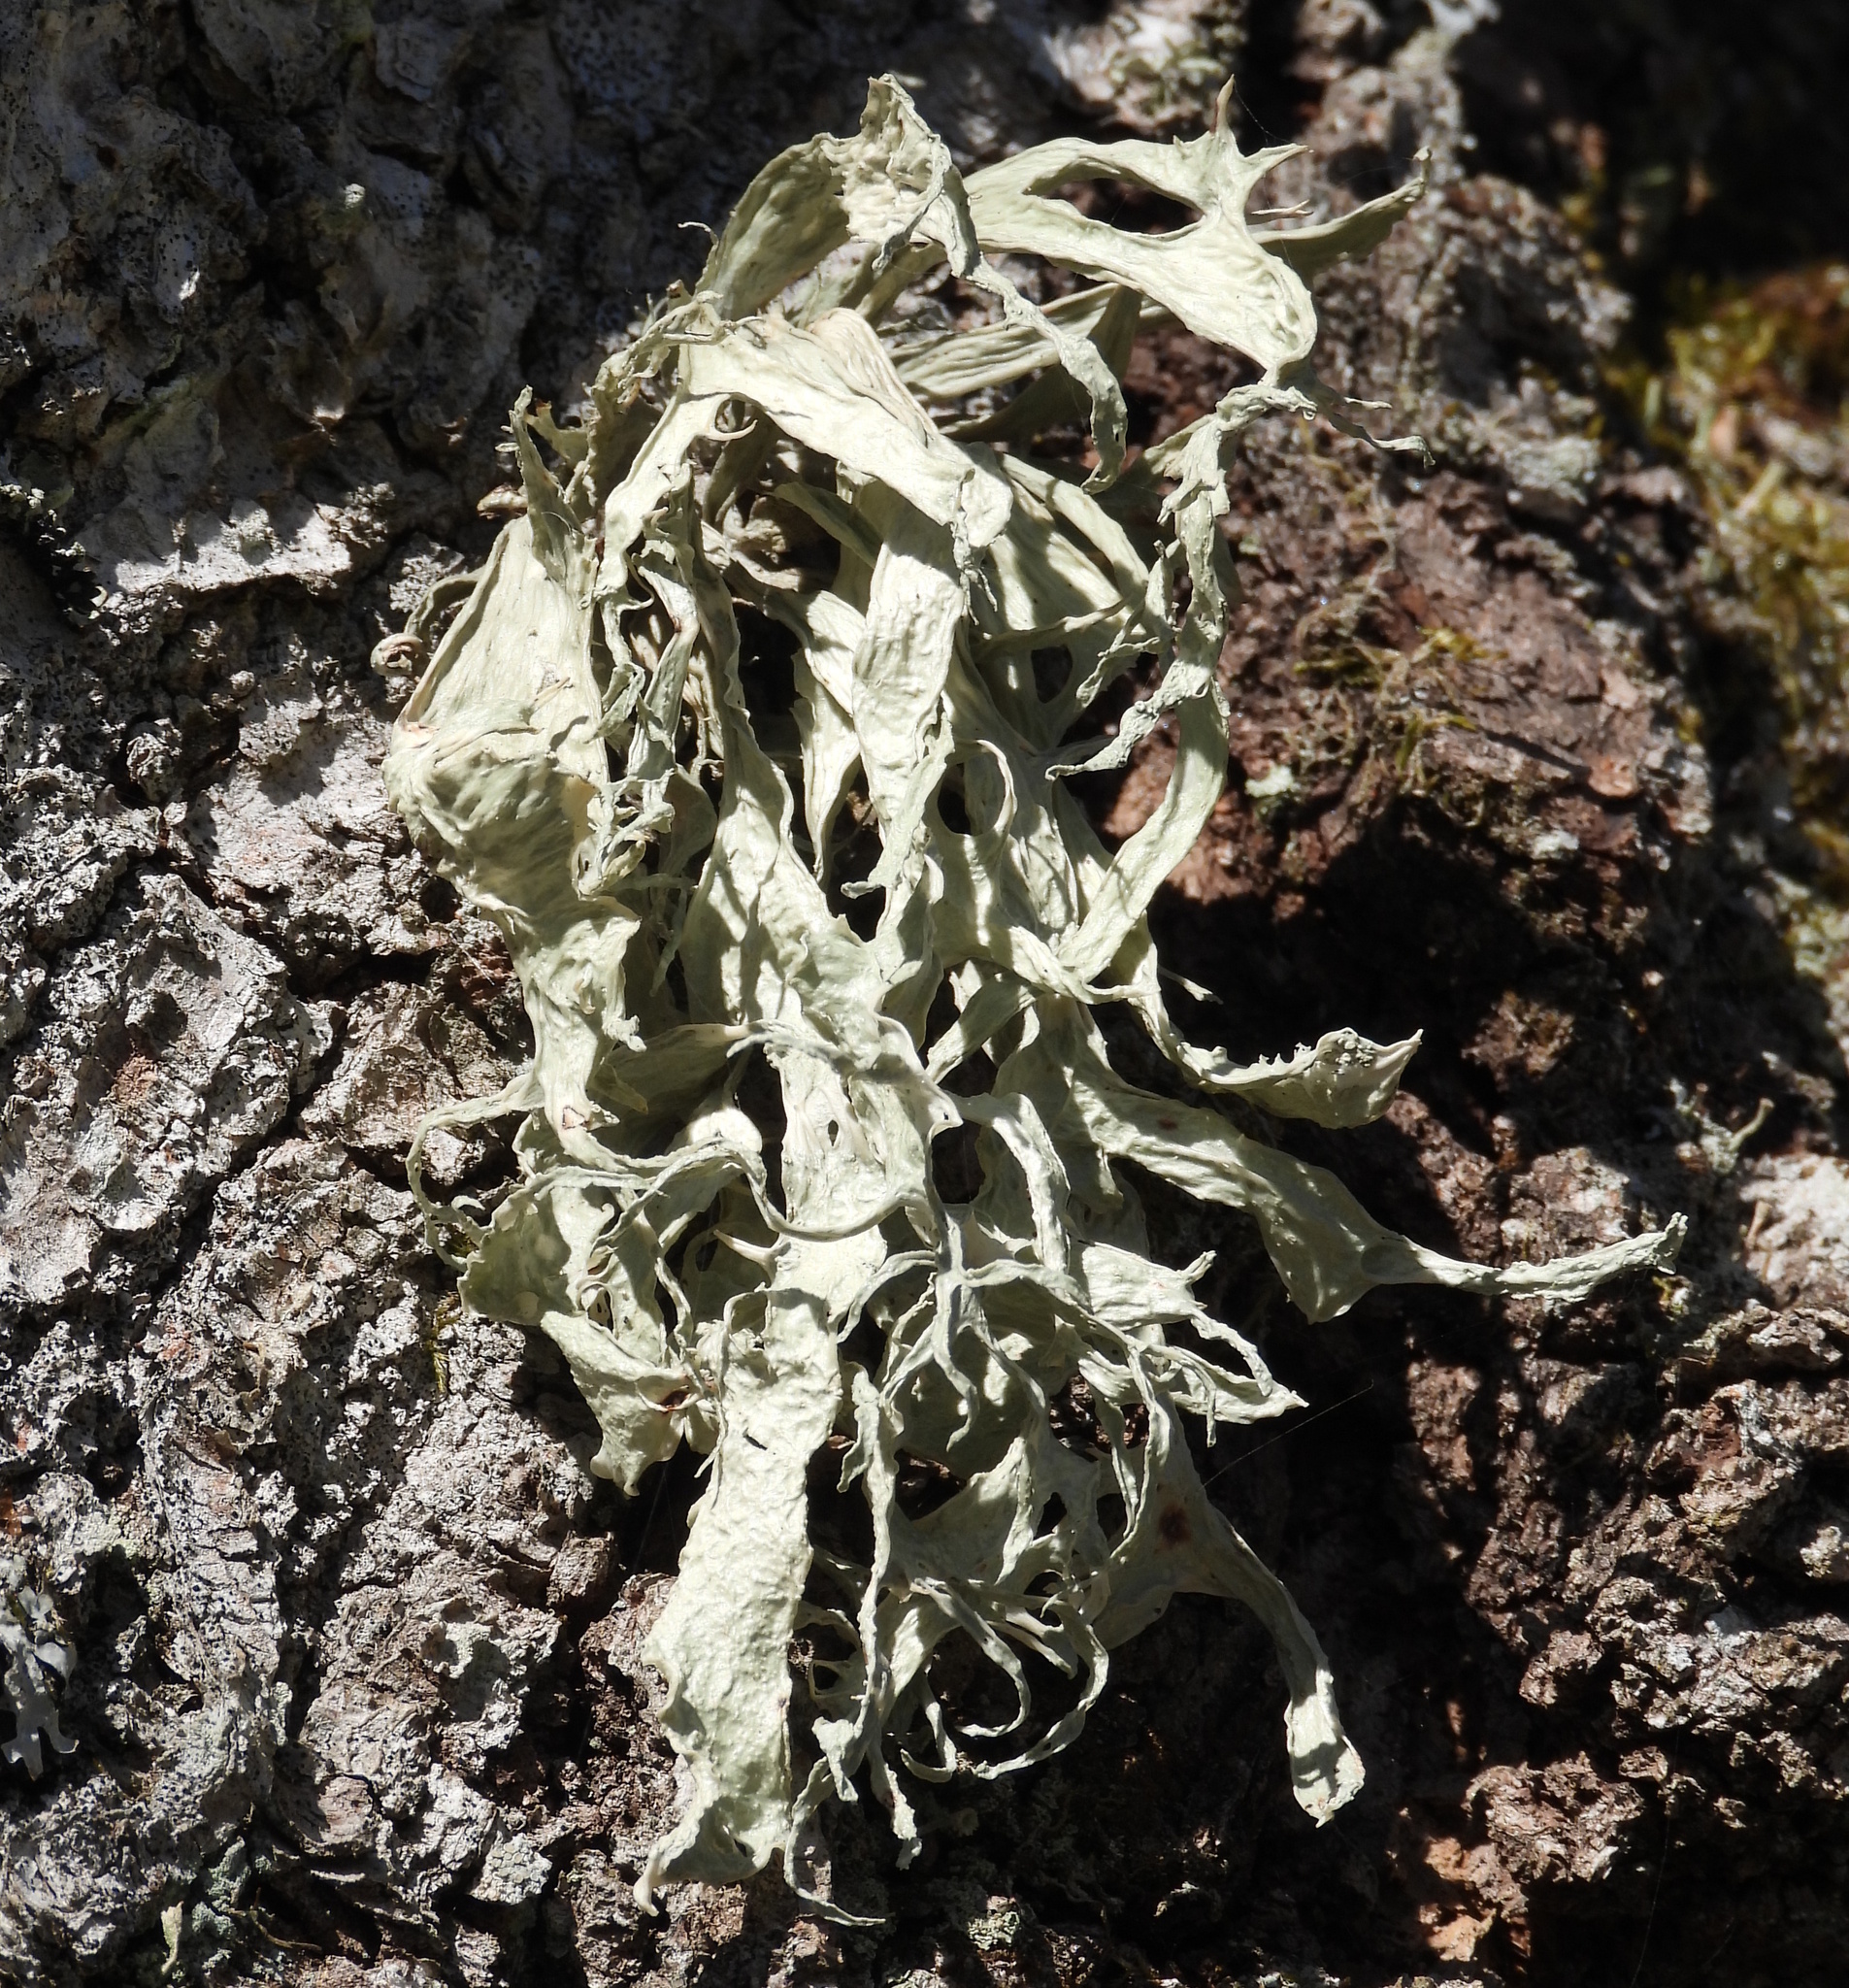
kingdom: Fungi
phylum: Ascomycota
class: Lecanoromycetes
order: Lecanorales
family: Ramalinaceae
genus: Ramalina
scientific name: Ramalina fraxinea
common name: Cartilage lichen
